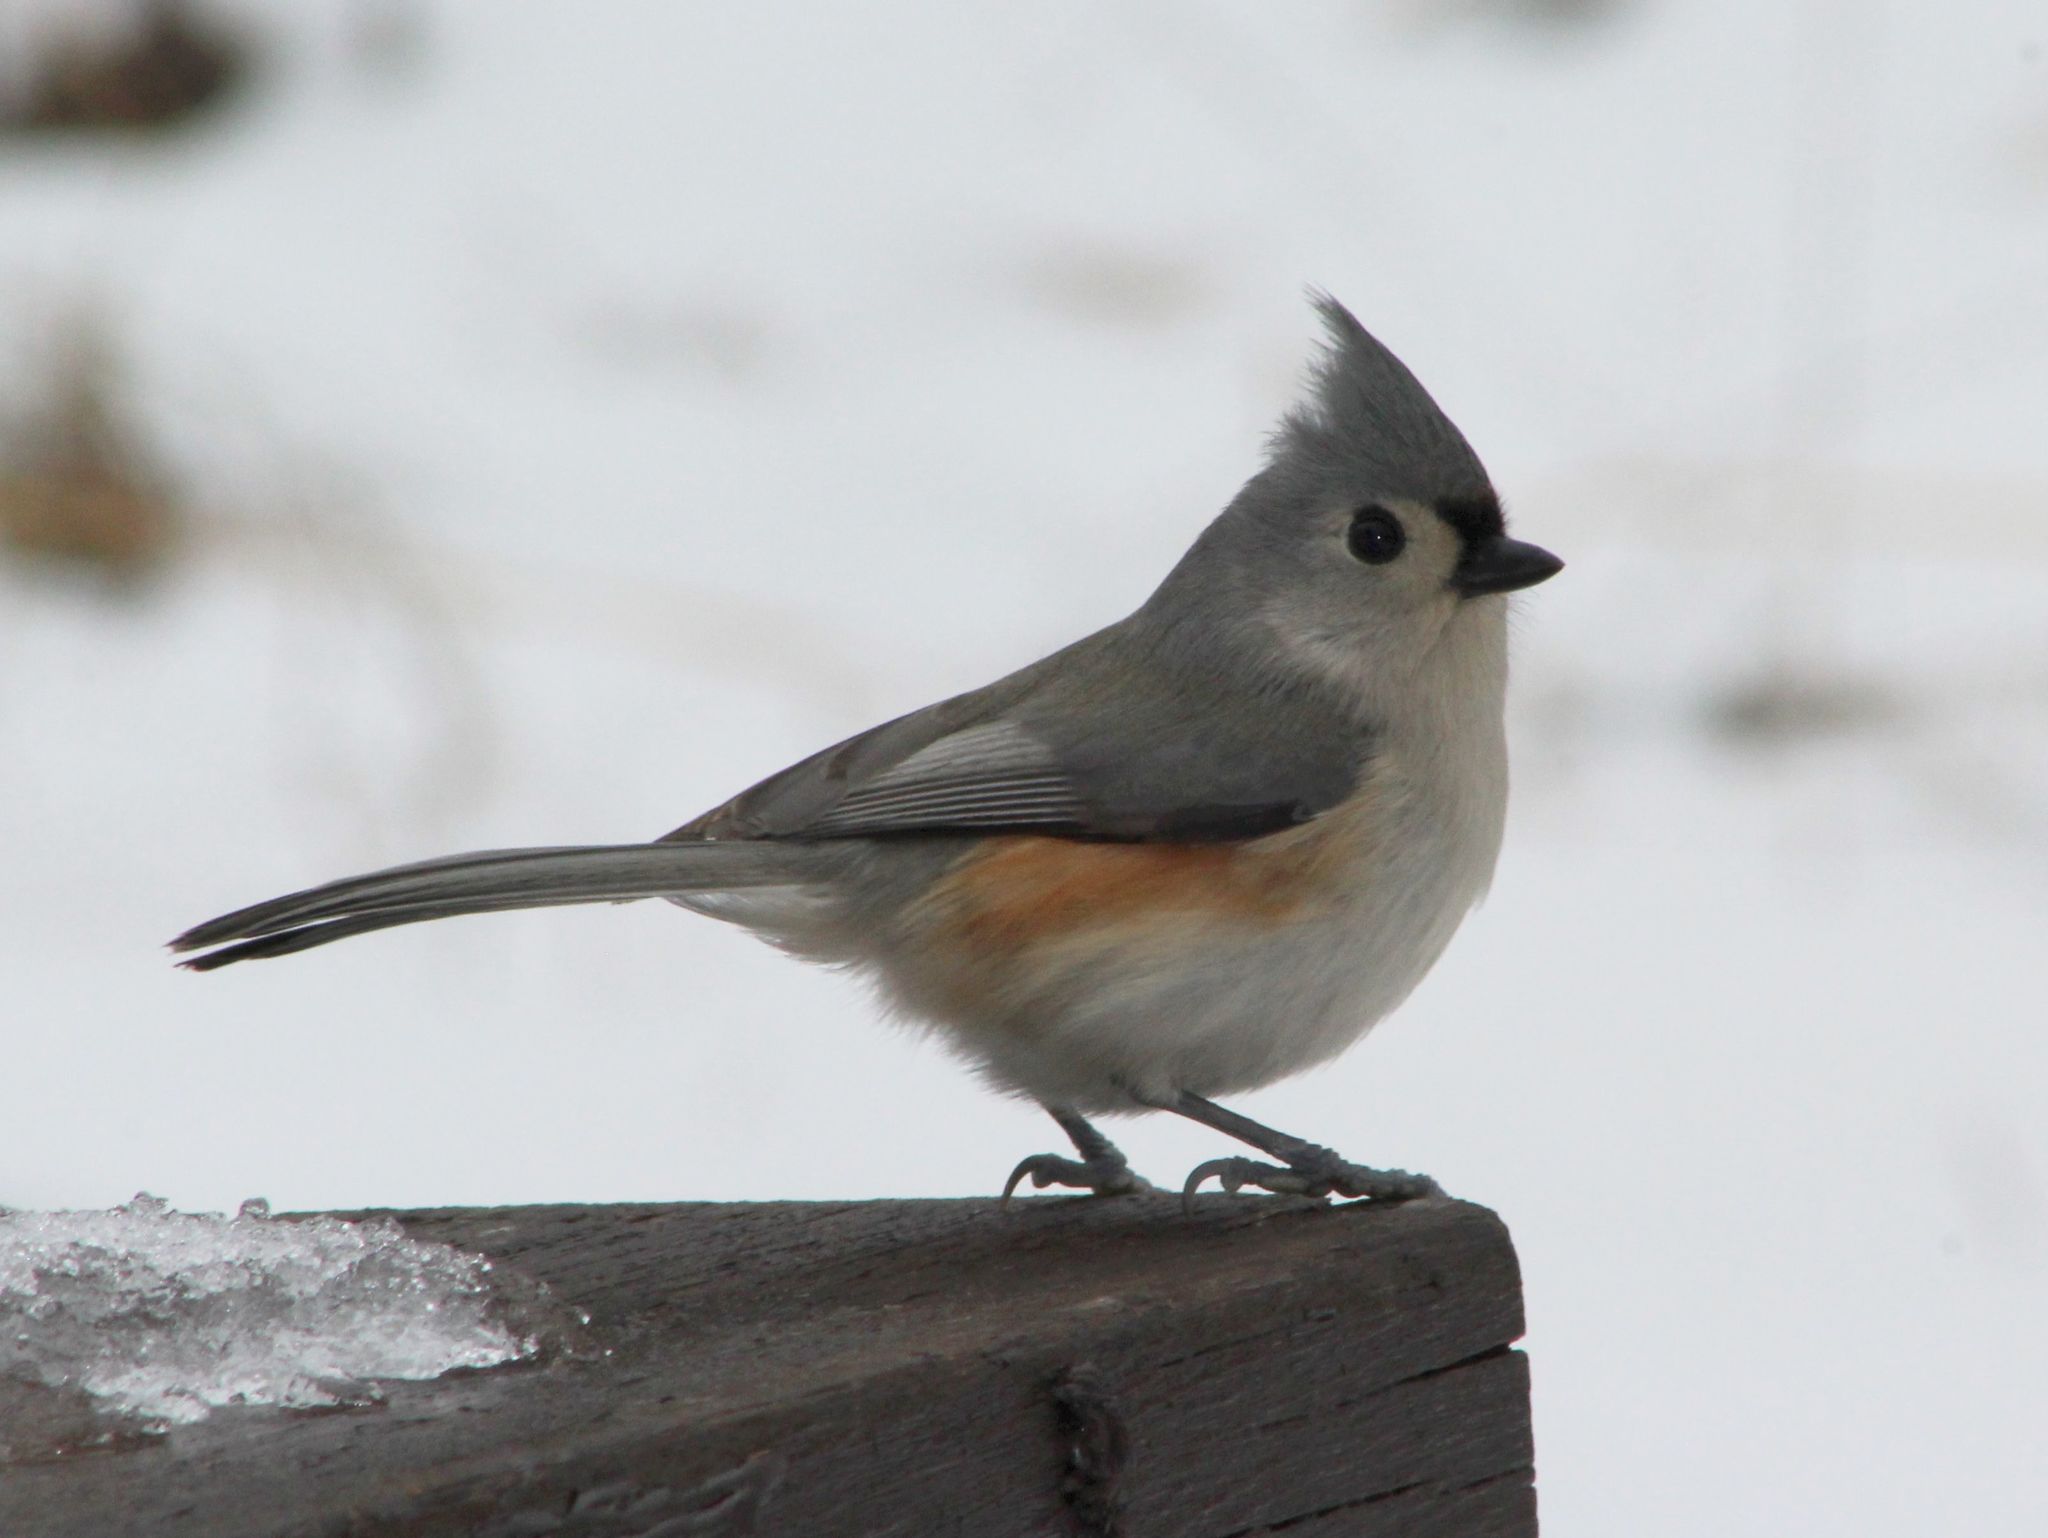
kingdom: Animalia
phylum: Chordata
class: Aves
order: Passeriformes
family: Paridae
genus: Baeolophus
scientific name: Baeolophus bicolor
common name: Tufted titmouse
